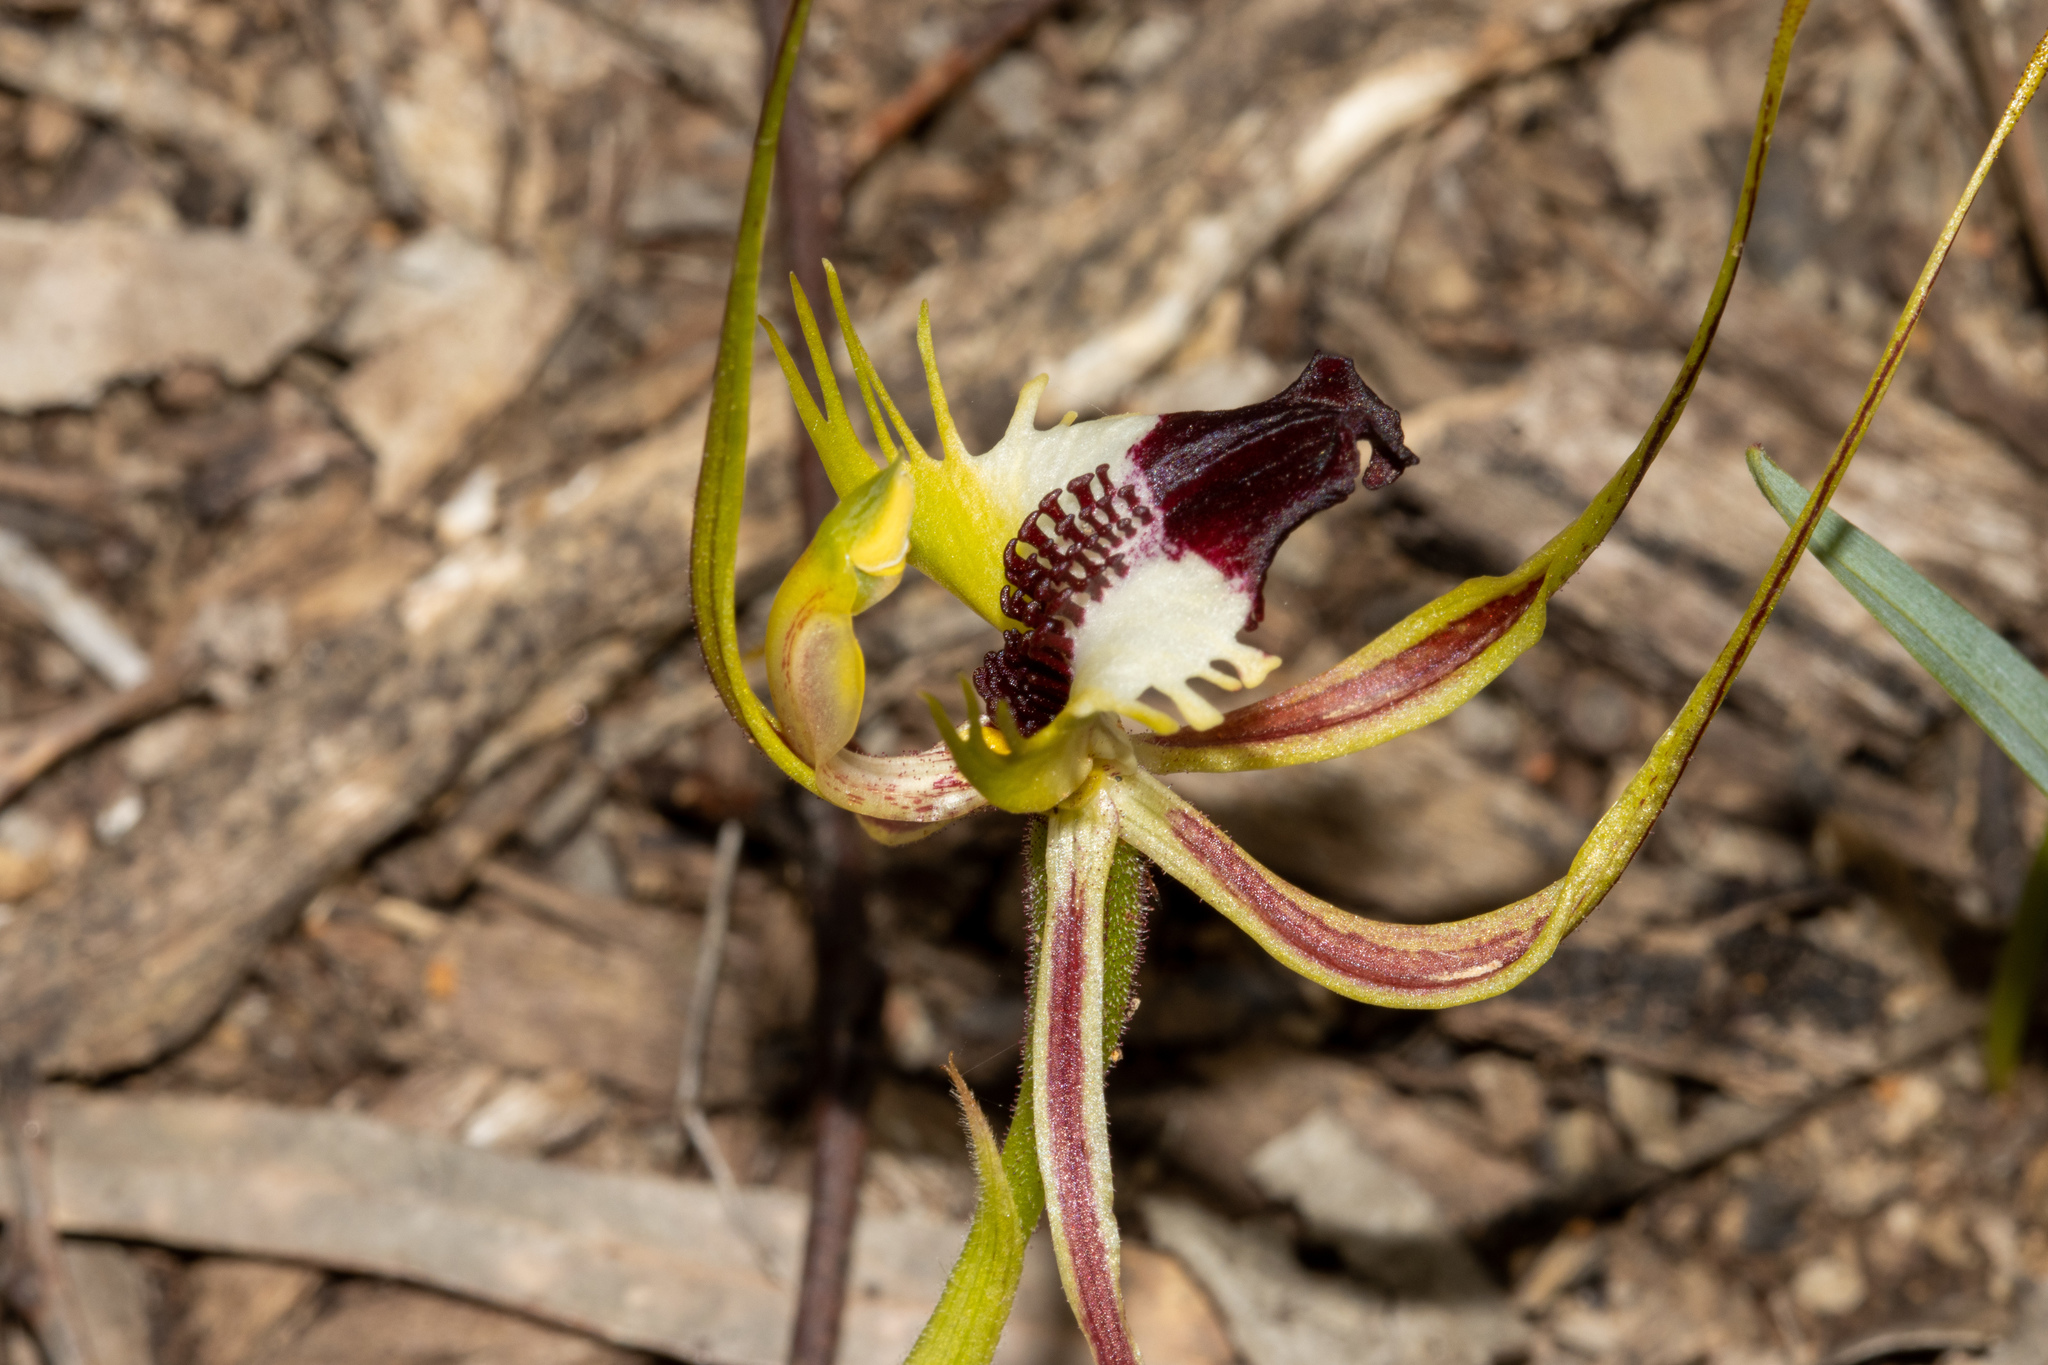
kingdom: Plantae
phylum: Tracheophyta
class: Liliopsida
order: Asparagales
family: Orchidaceae
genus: Caladenia
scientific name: Caladenia tentaculata
